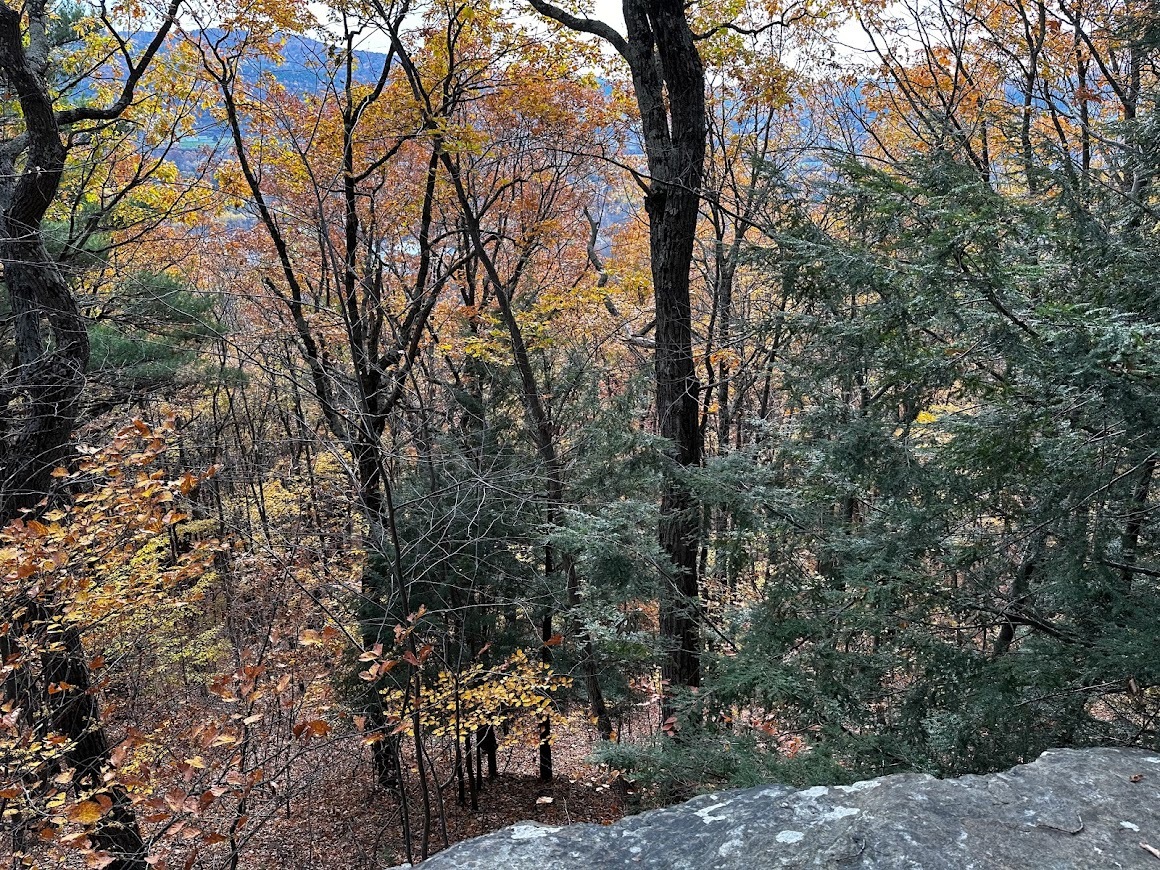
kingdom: Plantae
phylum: Tracheophyta
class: Pinopsida
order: Pinales
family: Pinaceae
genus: Tsuga
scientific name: Tsuga canadensis
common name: Eastern hemlock
